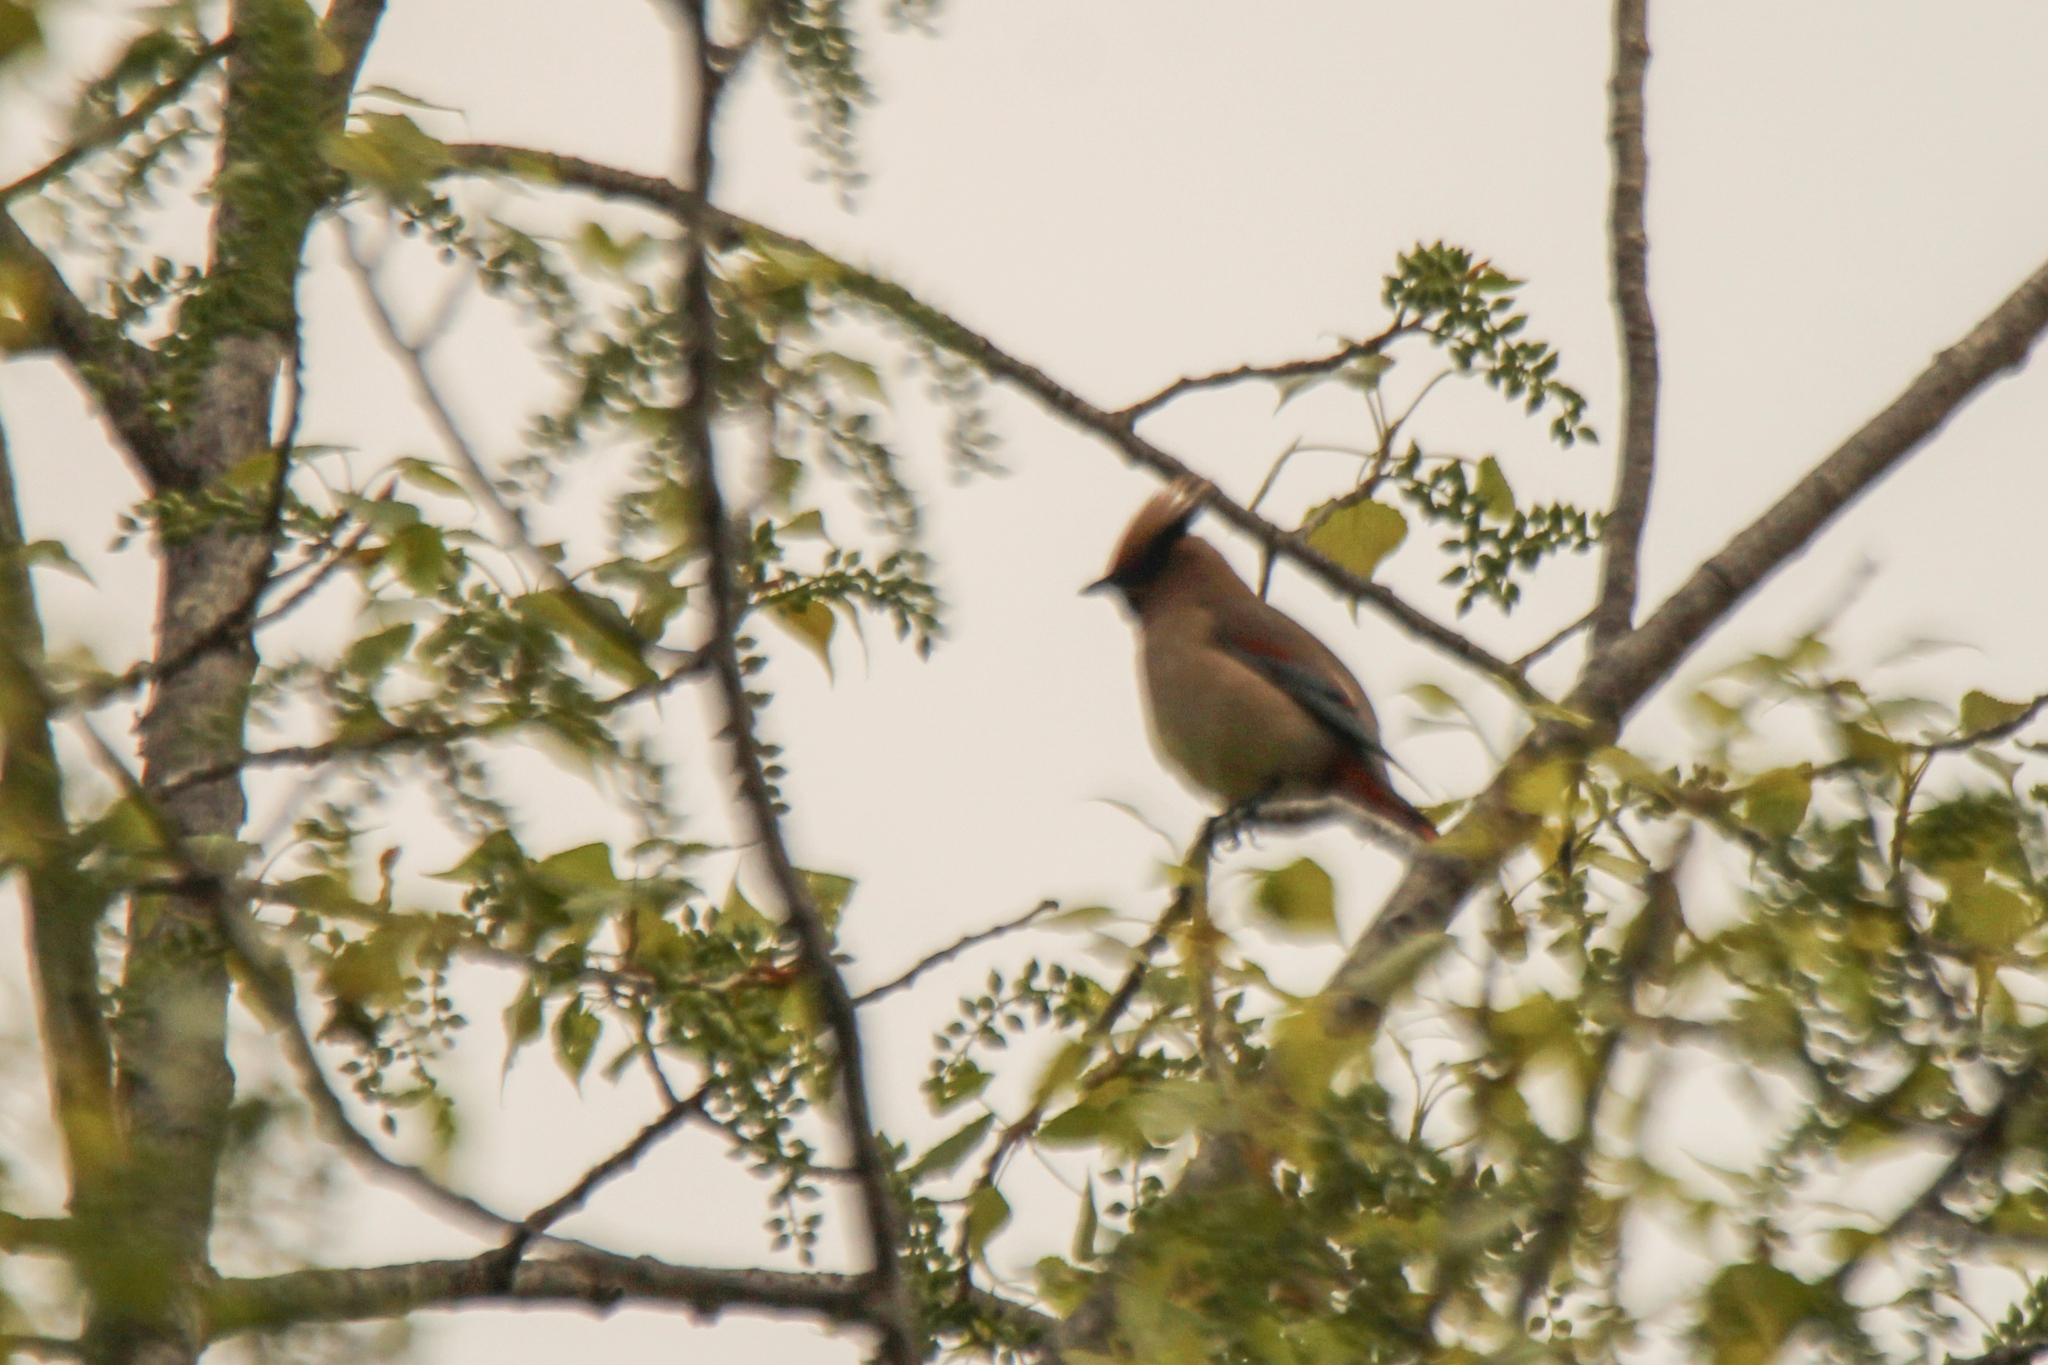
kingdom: Animalia
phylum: Chordata
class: Aves
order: Passeriformes
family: Bombycillidae
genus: Bombycilla
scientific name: Bombycilla japonica
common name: Japanese waxwing
